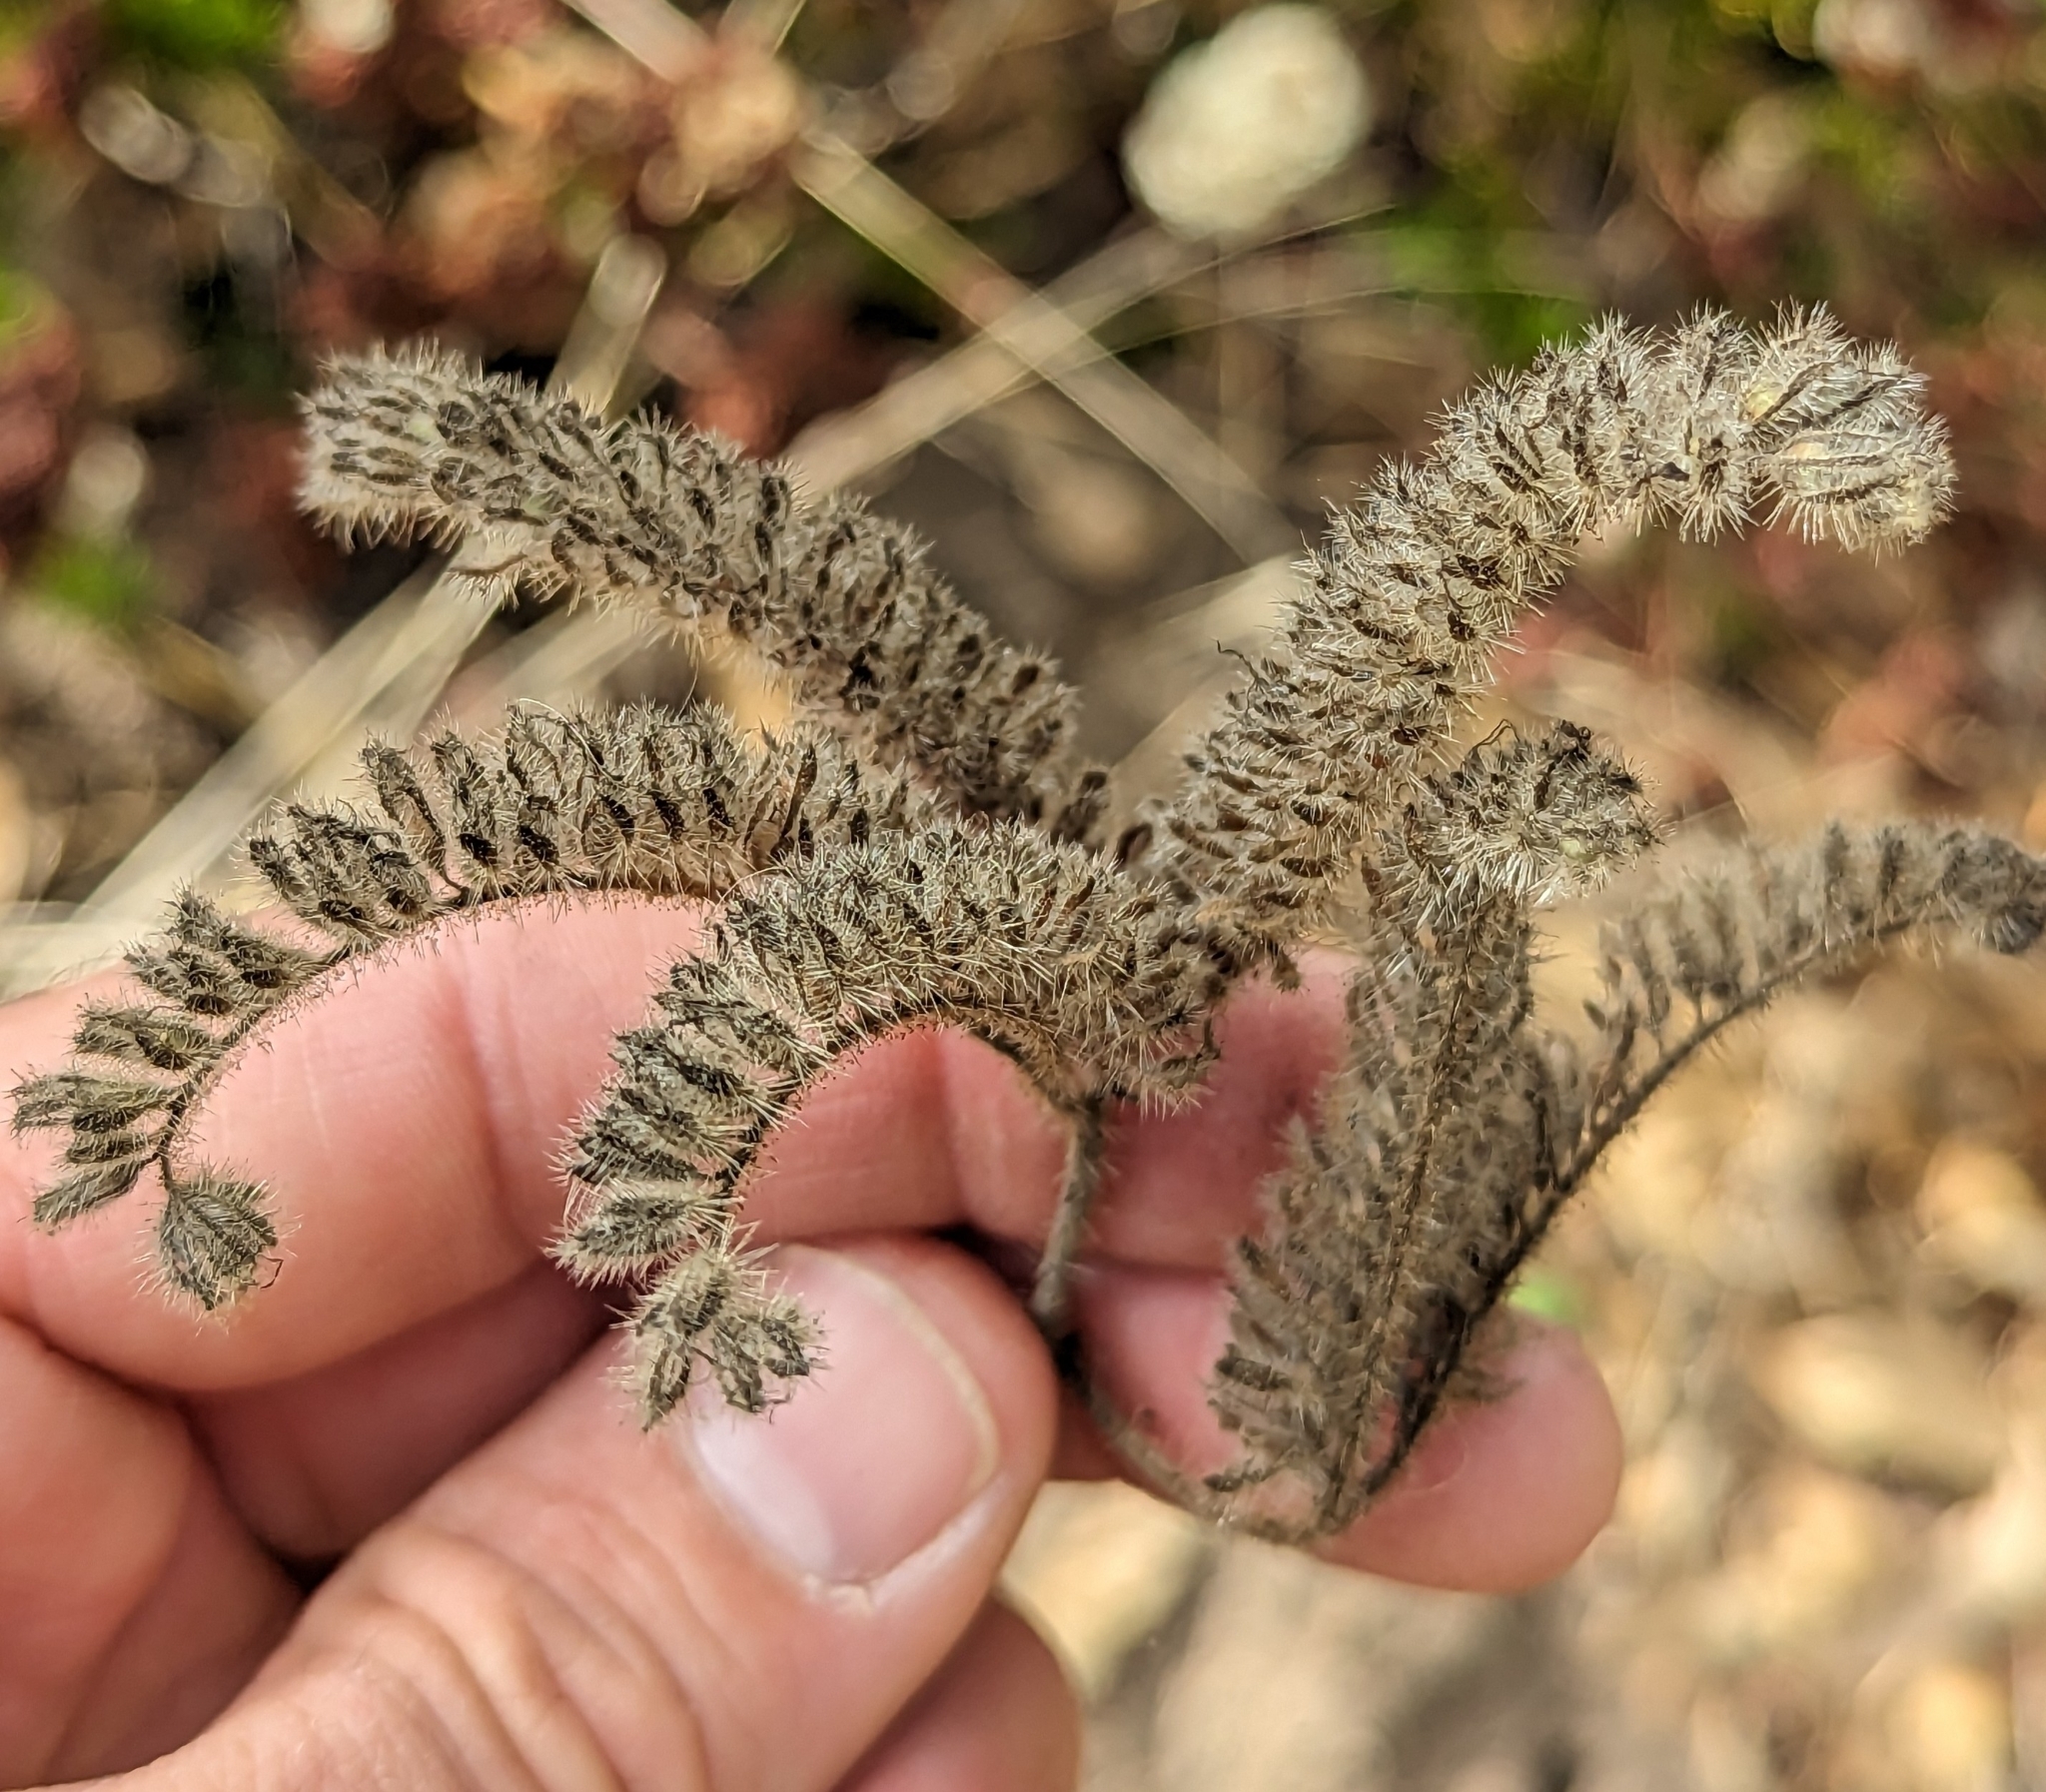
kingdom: Plantae
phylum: Tracheophyta
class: Magnoliopsida
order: Boraginales
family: Hydrophyllaceae
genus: Phacelia
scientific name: Phacelia ramosissima
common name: Branching phacelia
